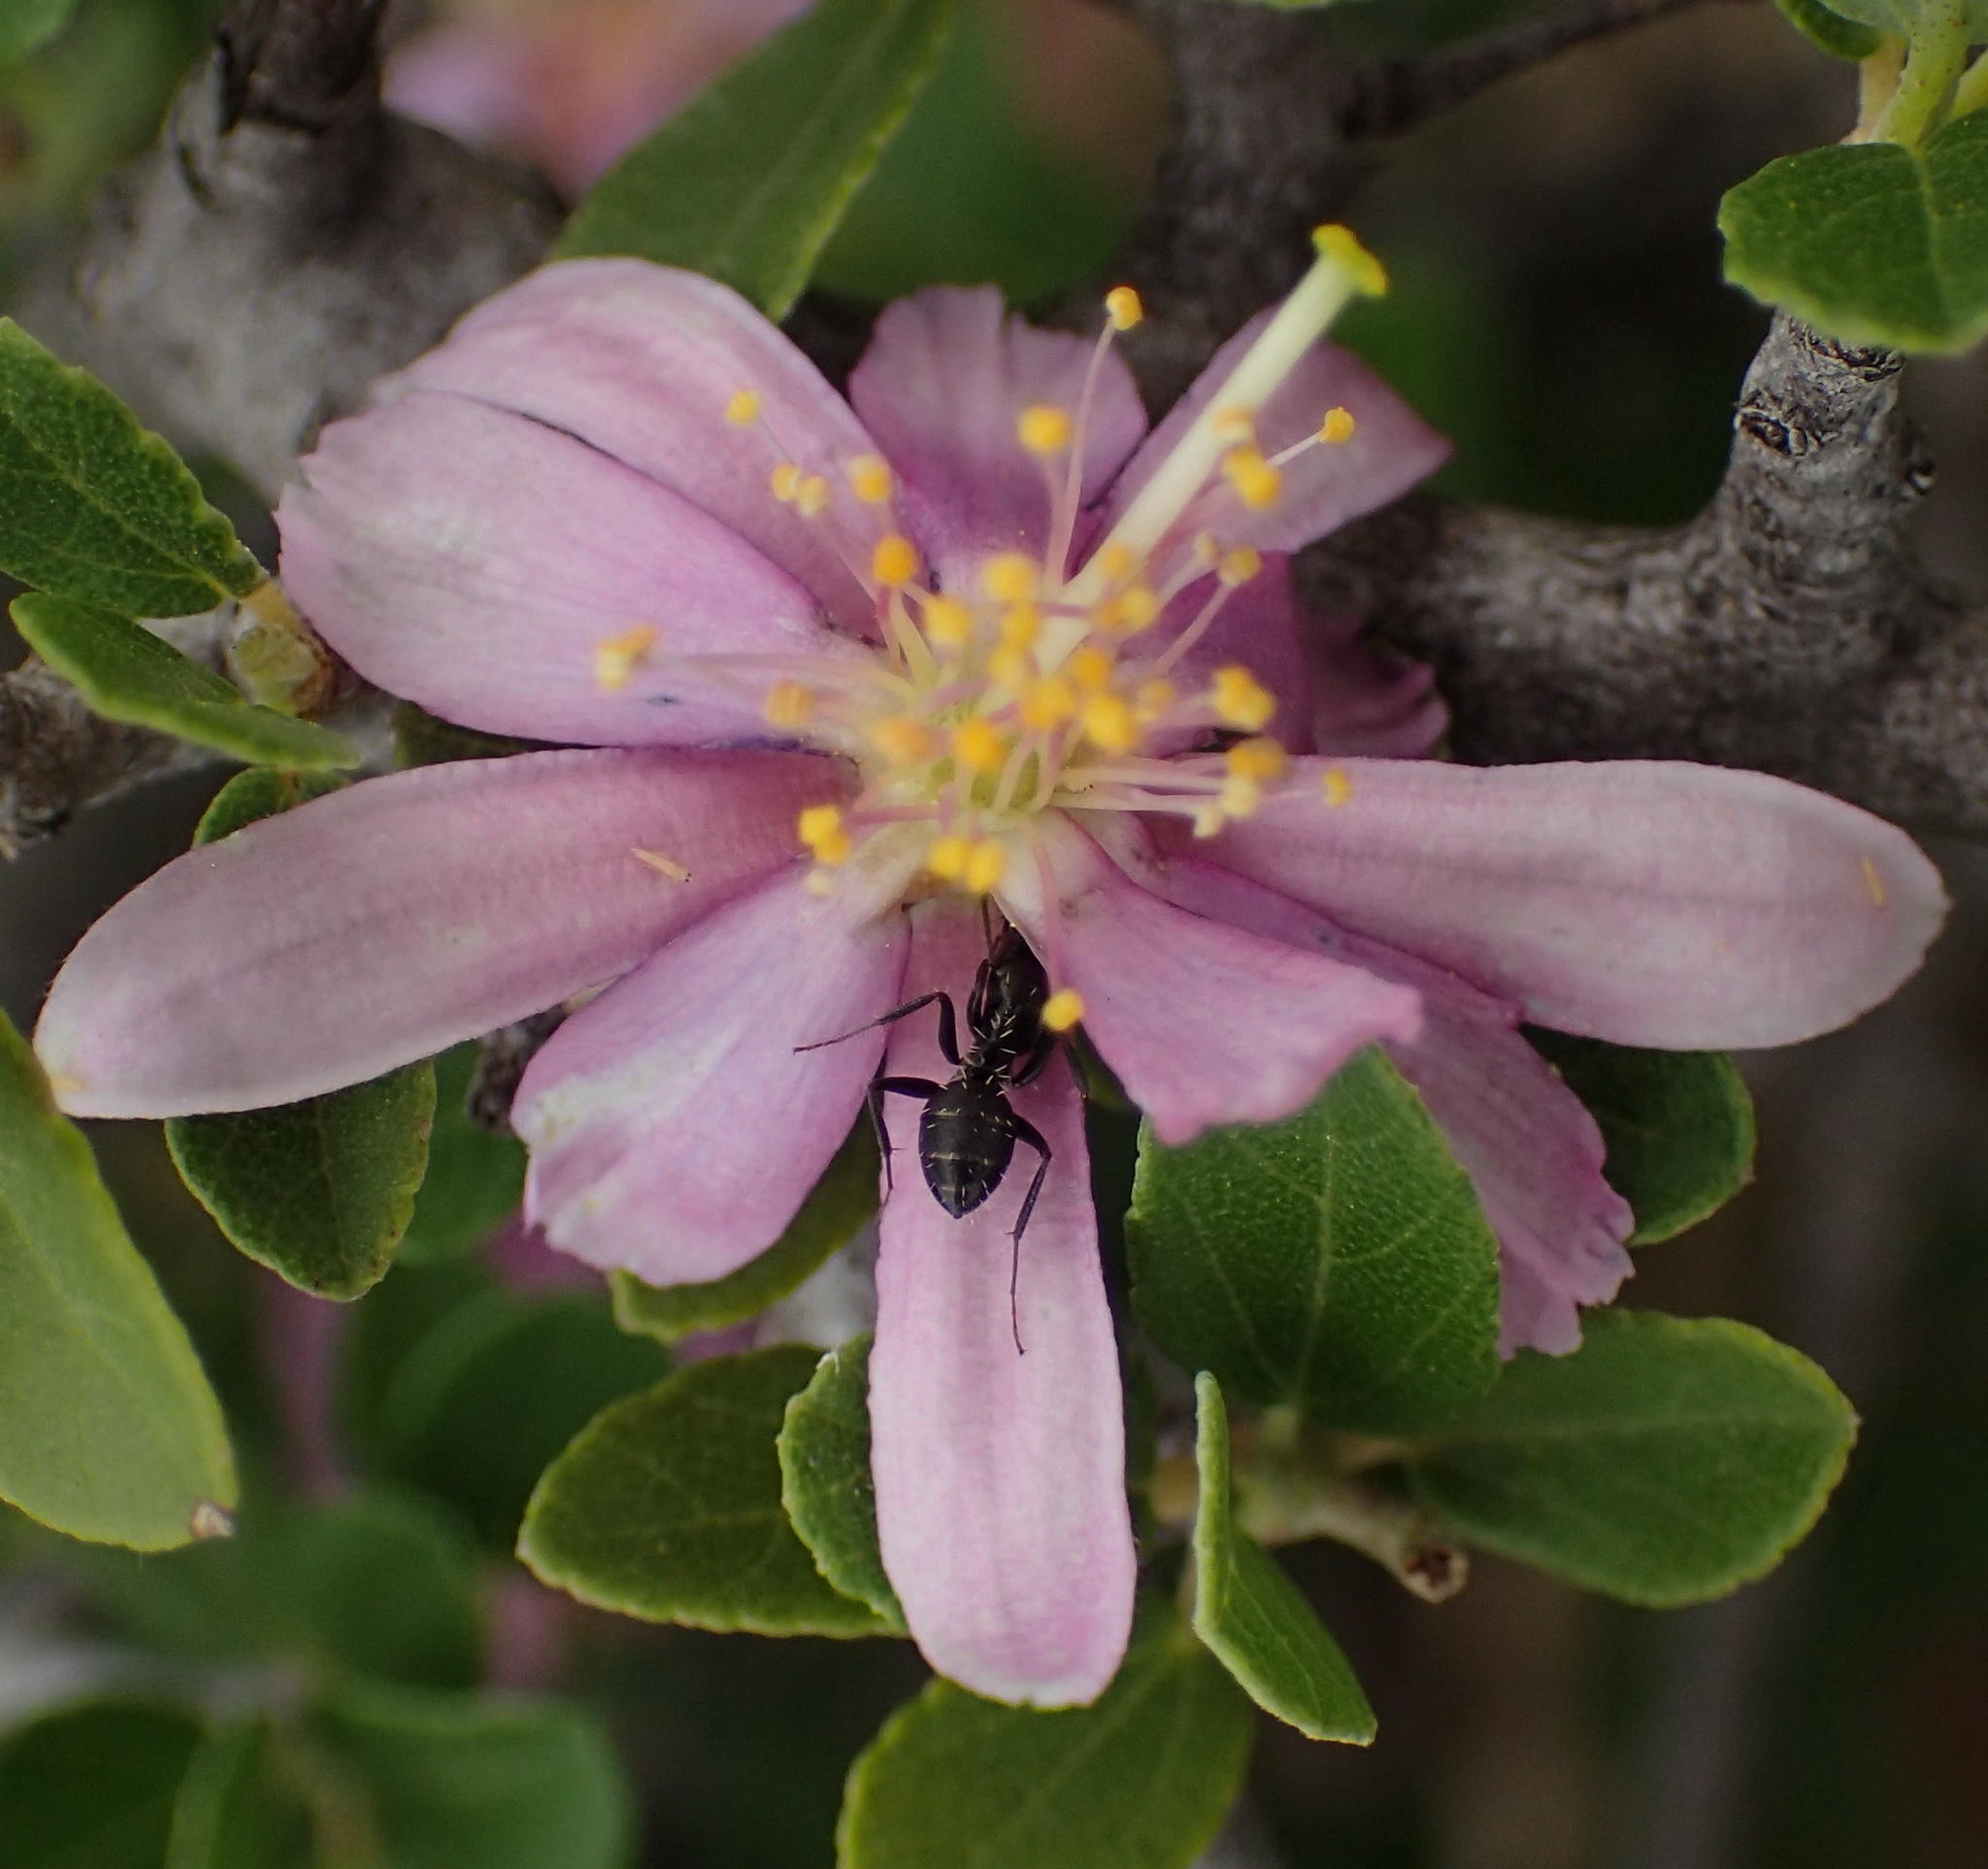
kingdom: Plantae
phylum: Tracheophyta
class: Magnoliopsida
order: Malvales
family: Malvaceae
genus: Grewia
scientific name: Grewia robusta
